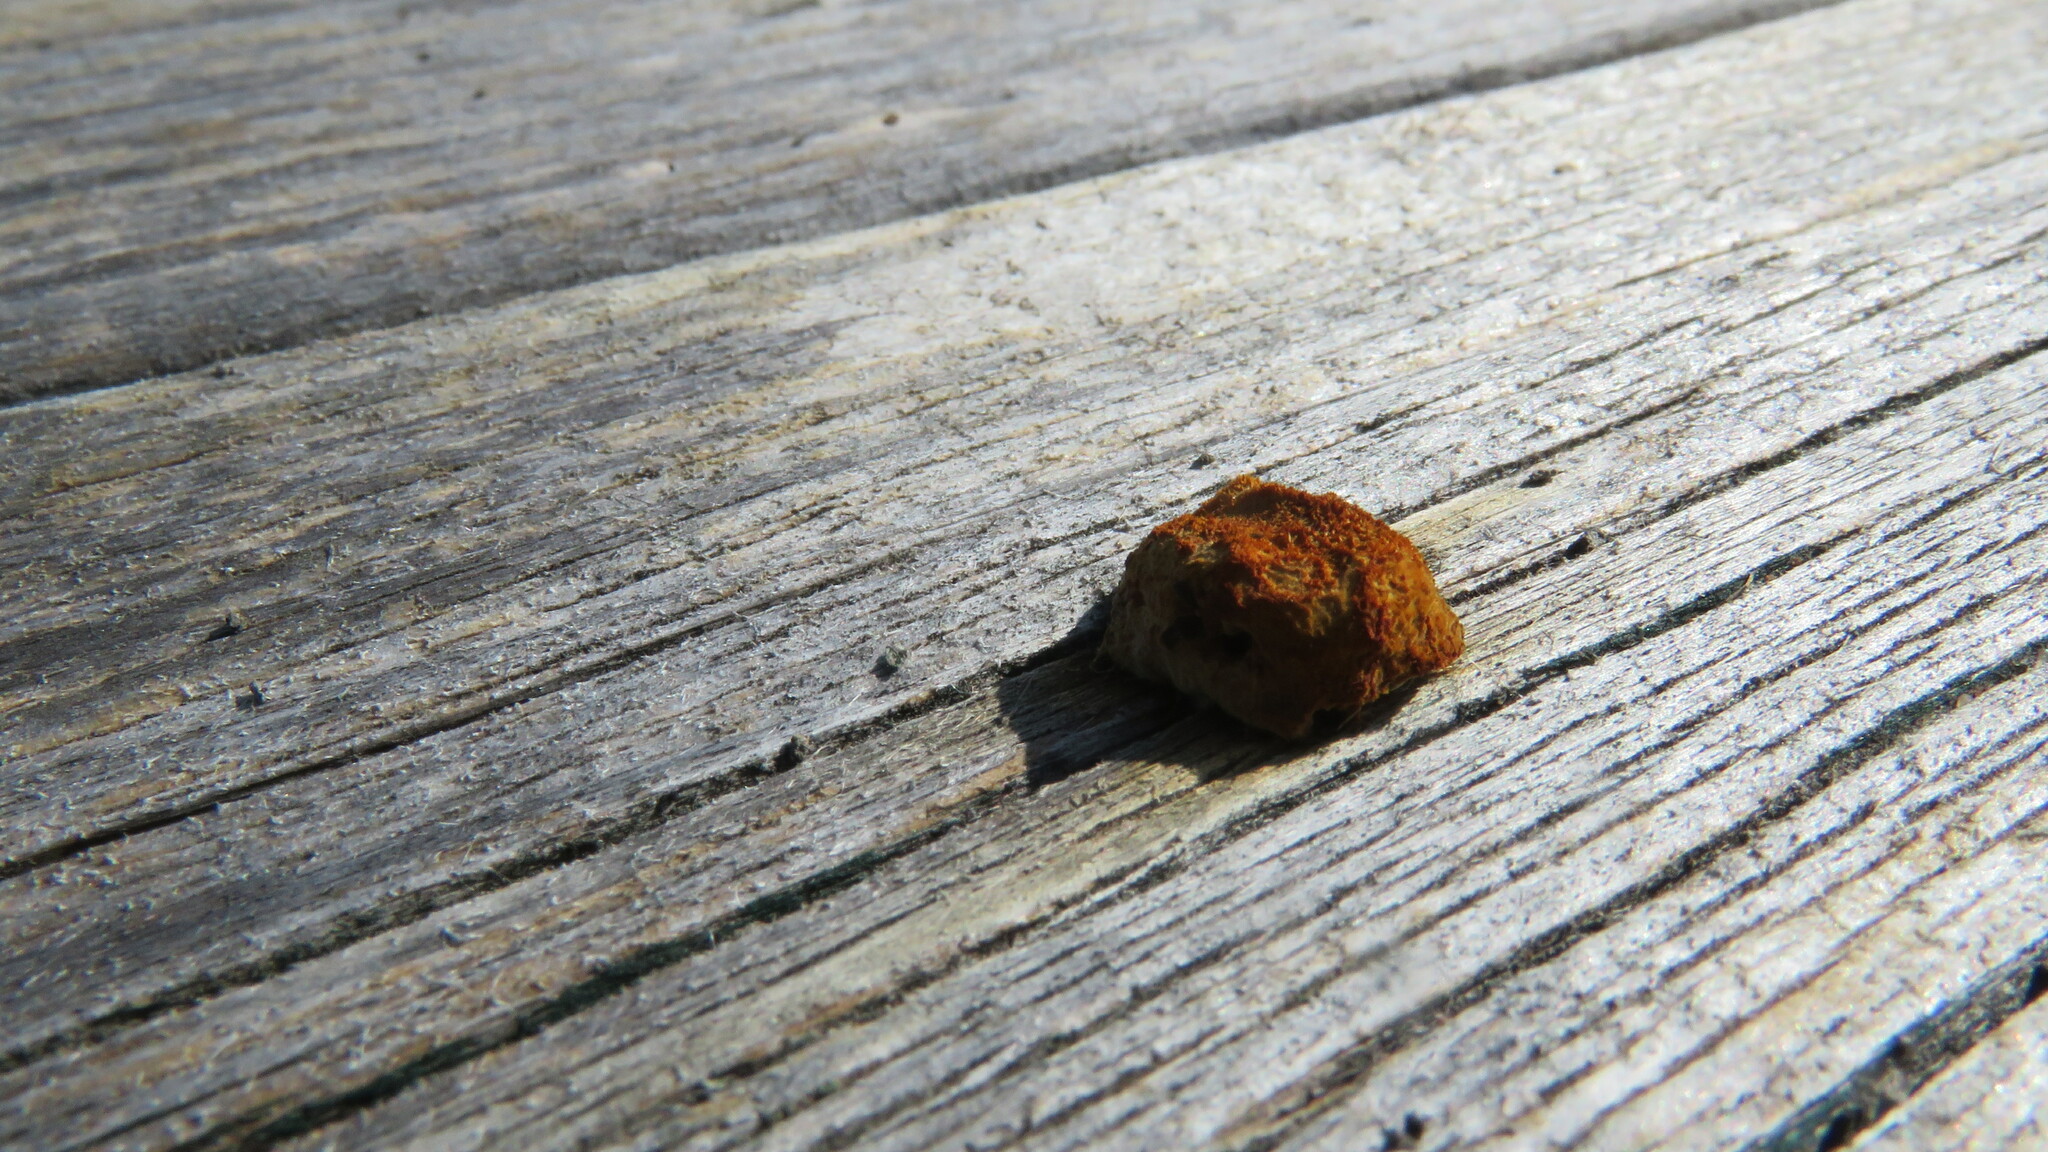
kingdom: Fungi
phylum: Basidiomycota
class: Agaricomycetes
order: Gloeophyllales
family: Gloeophyllaceae
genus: Gloeophyllum
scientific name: Gloeophyllum sepiarium
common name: Conifer mazegill
